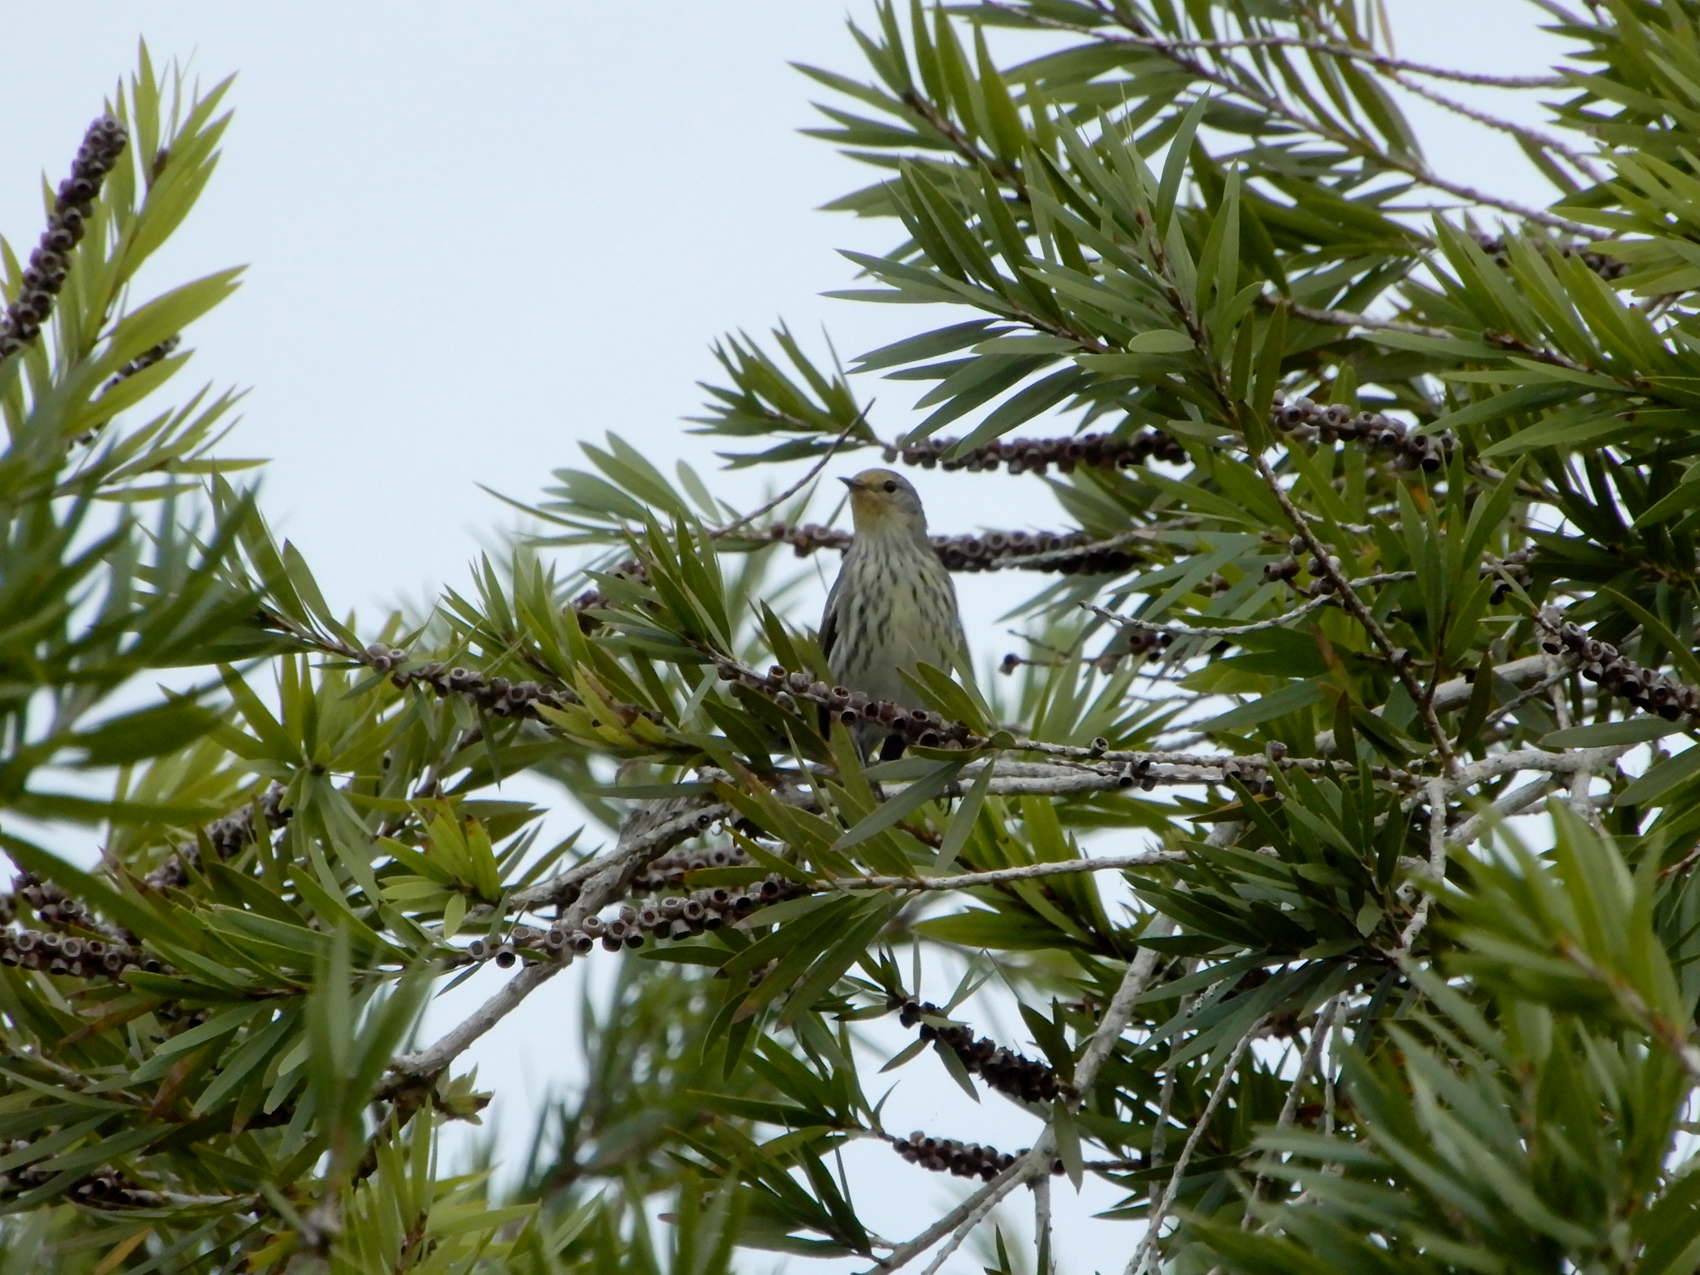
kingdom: Animalia
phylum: Chordata
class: Aves
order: Passeriformes
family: Parulidae
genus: Setophaga
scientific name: Setophaga tigrina
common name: Cape may warbler
